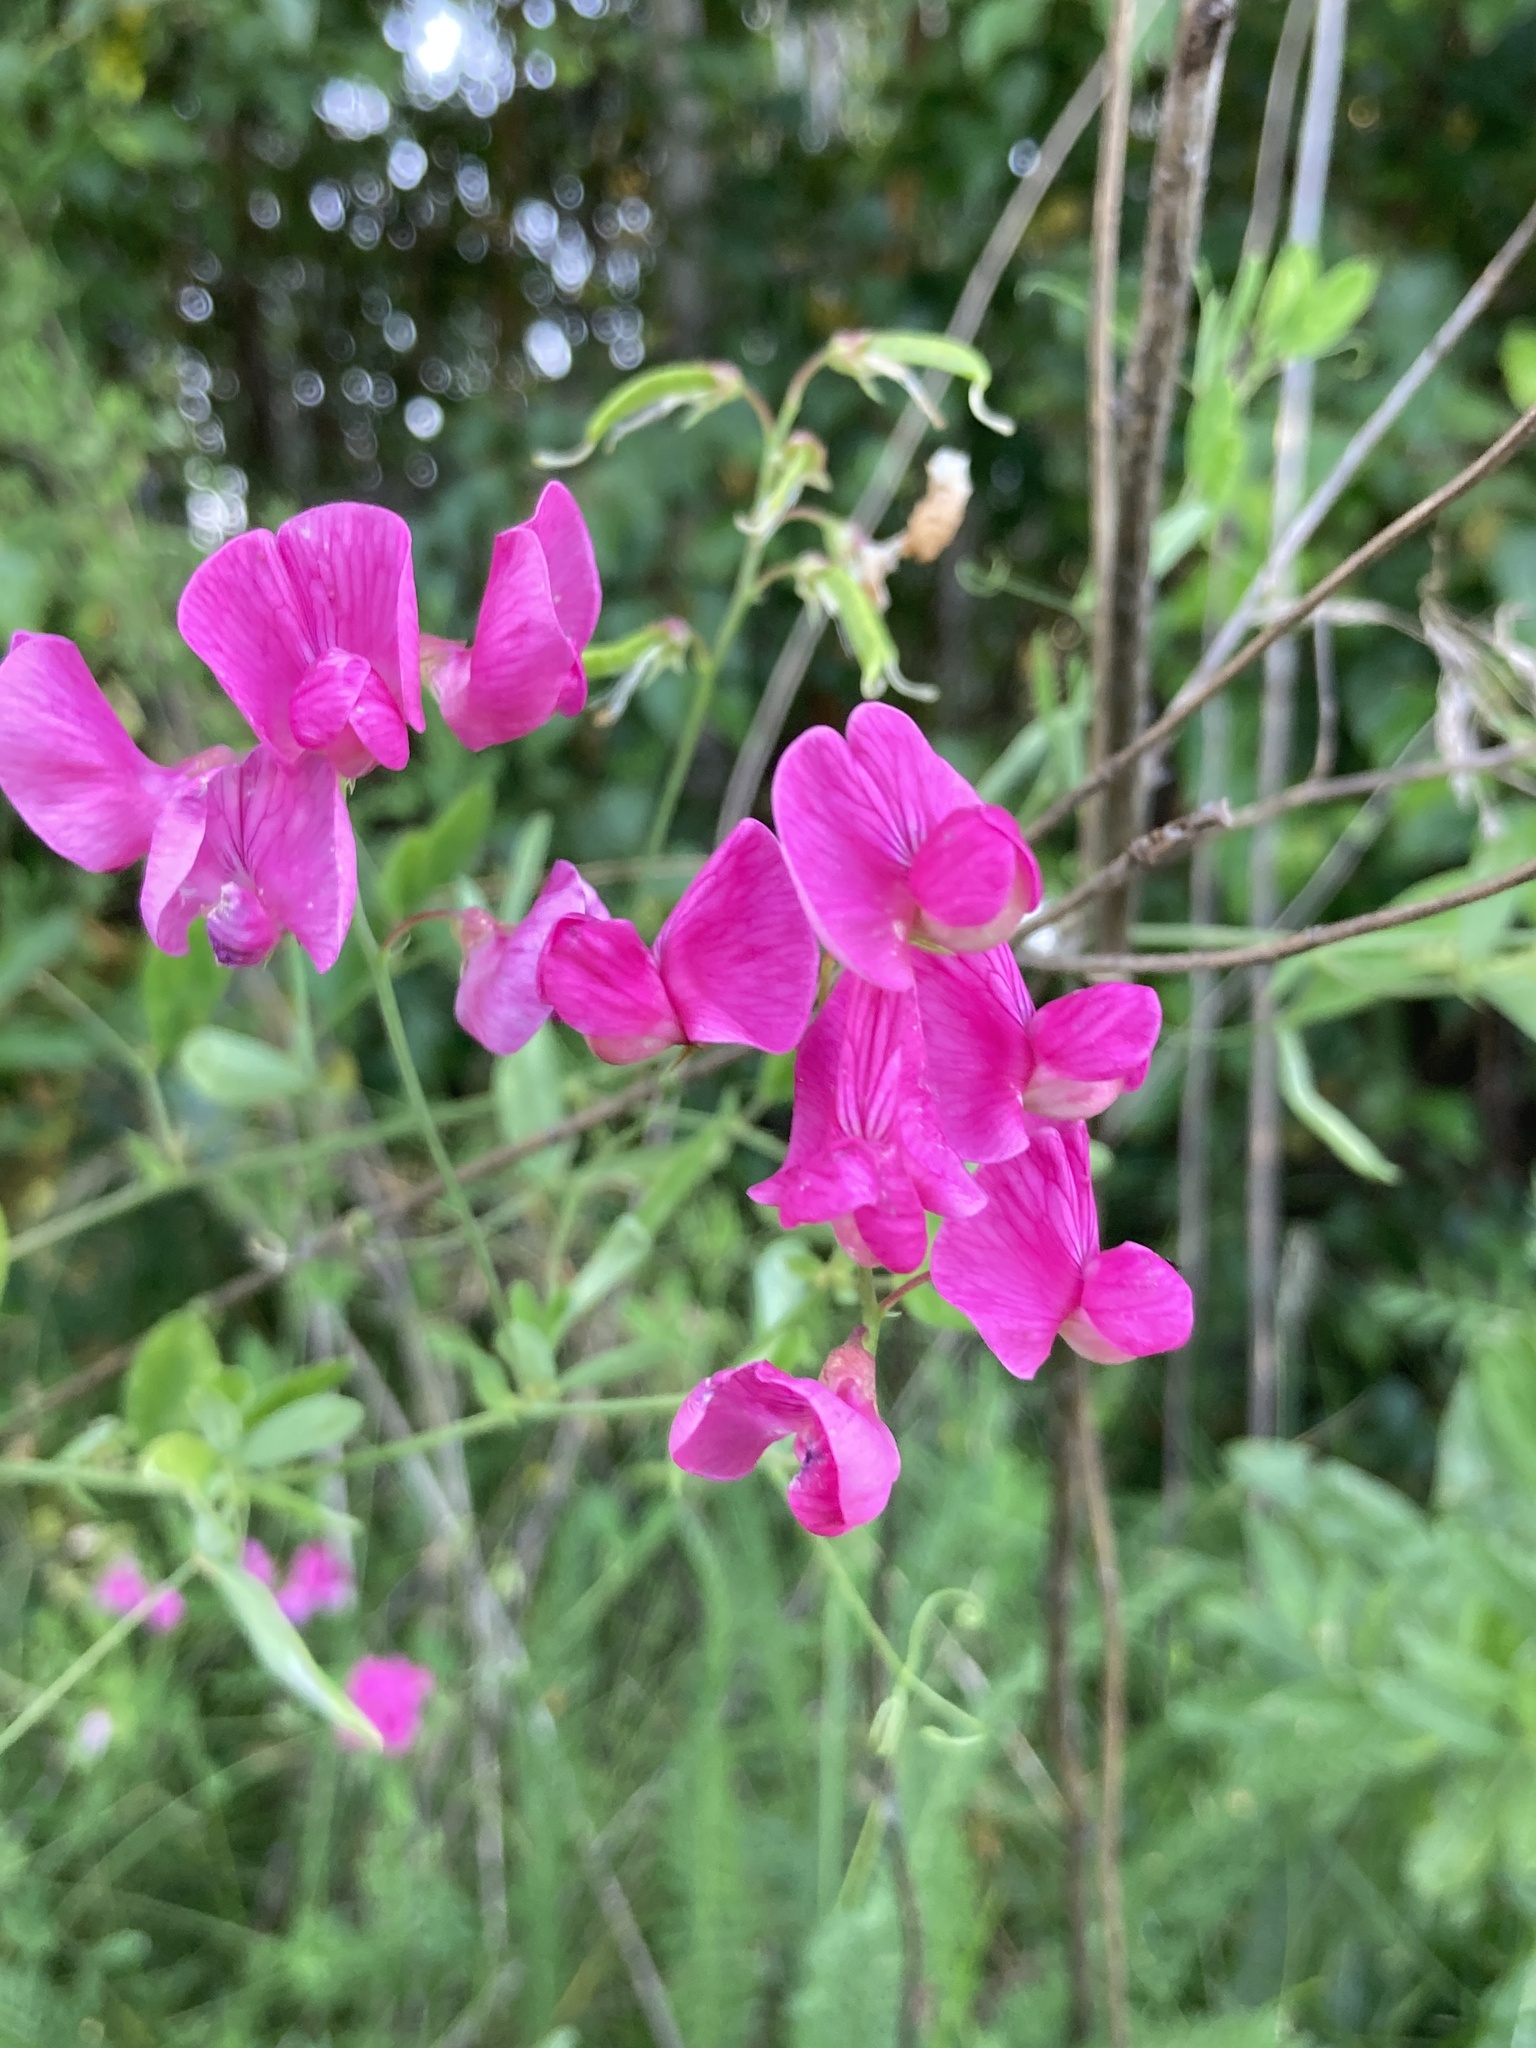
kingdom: Plantae
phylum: Tracheophyta
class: Magnoliopsida
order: Fabales
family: Fabaceae
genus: Lathyrus
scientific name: Lathyrus tuberosus
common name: Tuberous pea
